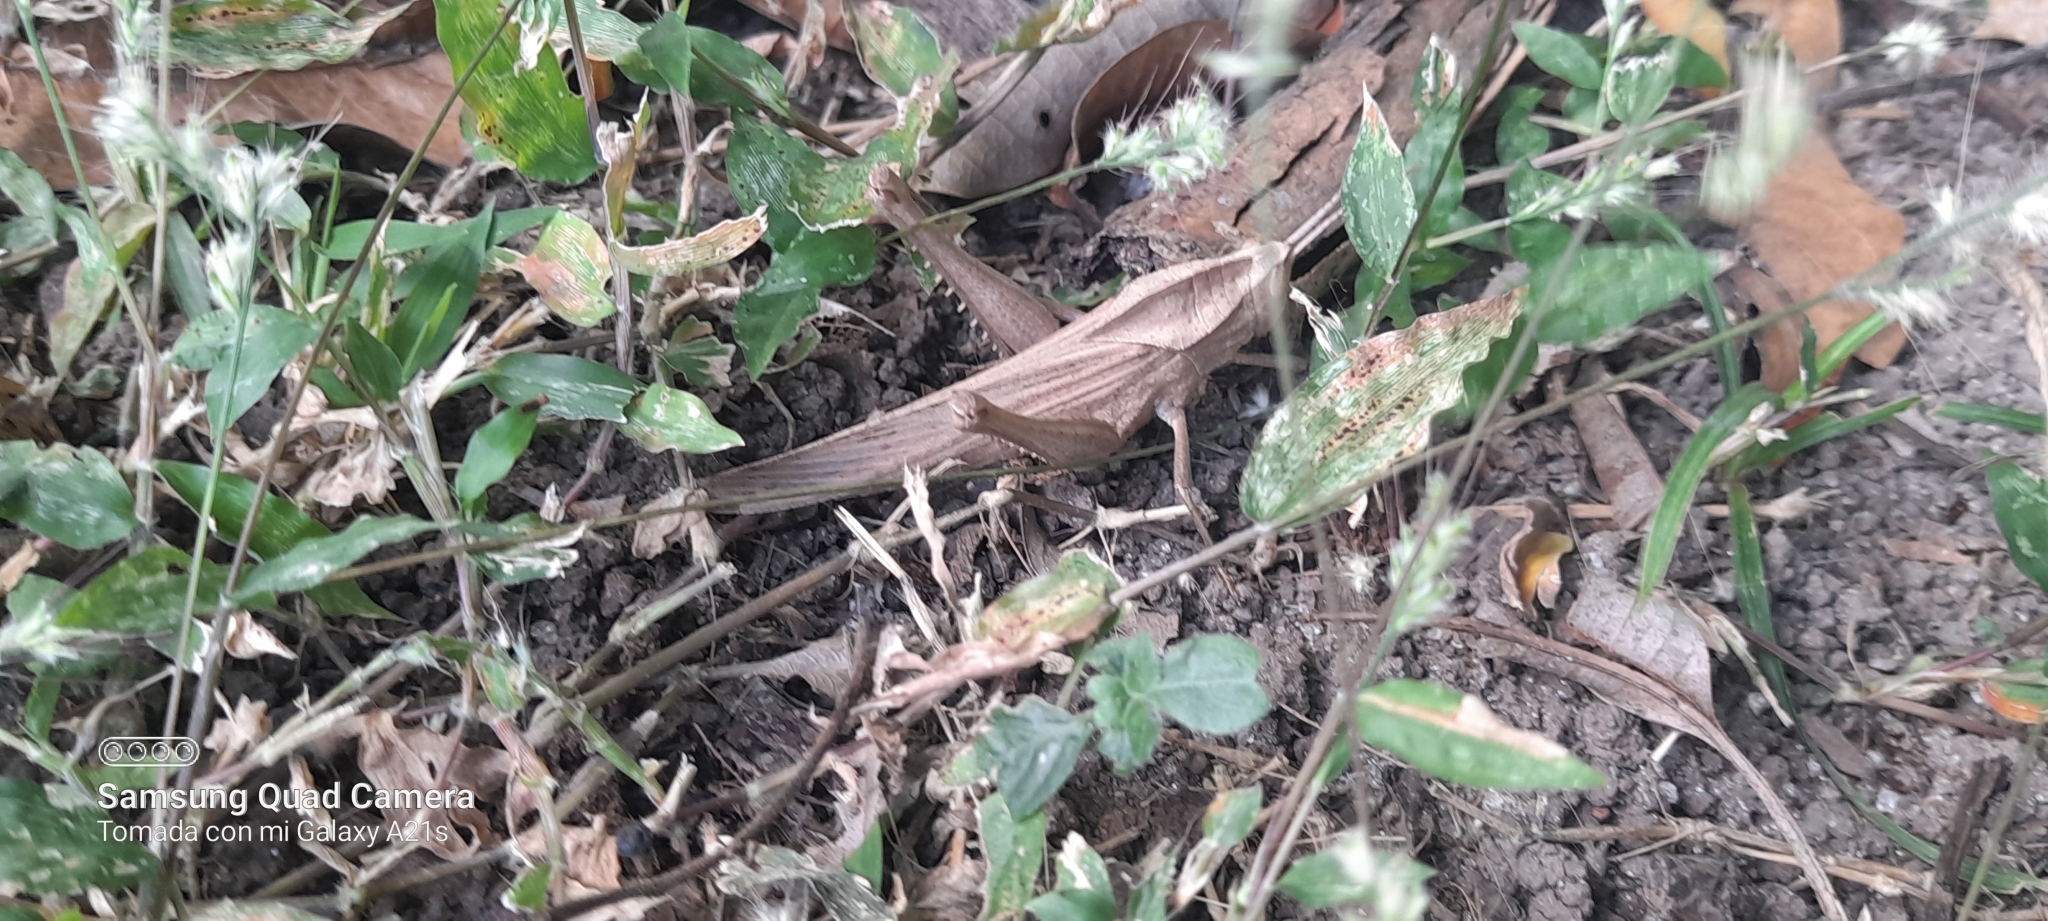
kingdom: Animalia
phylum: Arthropoda
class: Insecta
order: Orthoptera
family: Romaleidae
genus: Xyleus
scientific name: Xyleus discoideus
